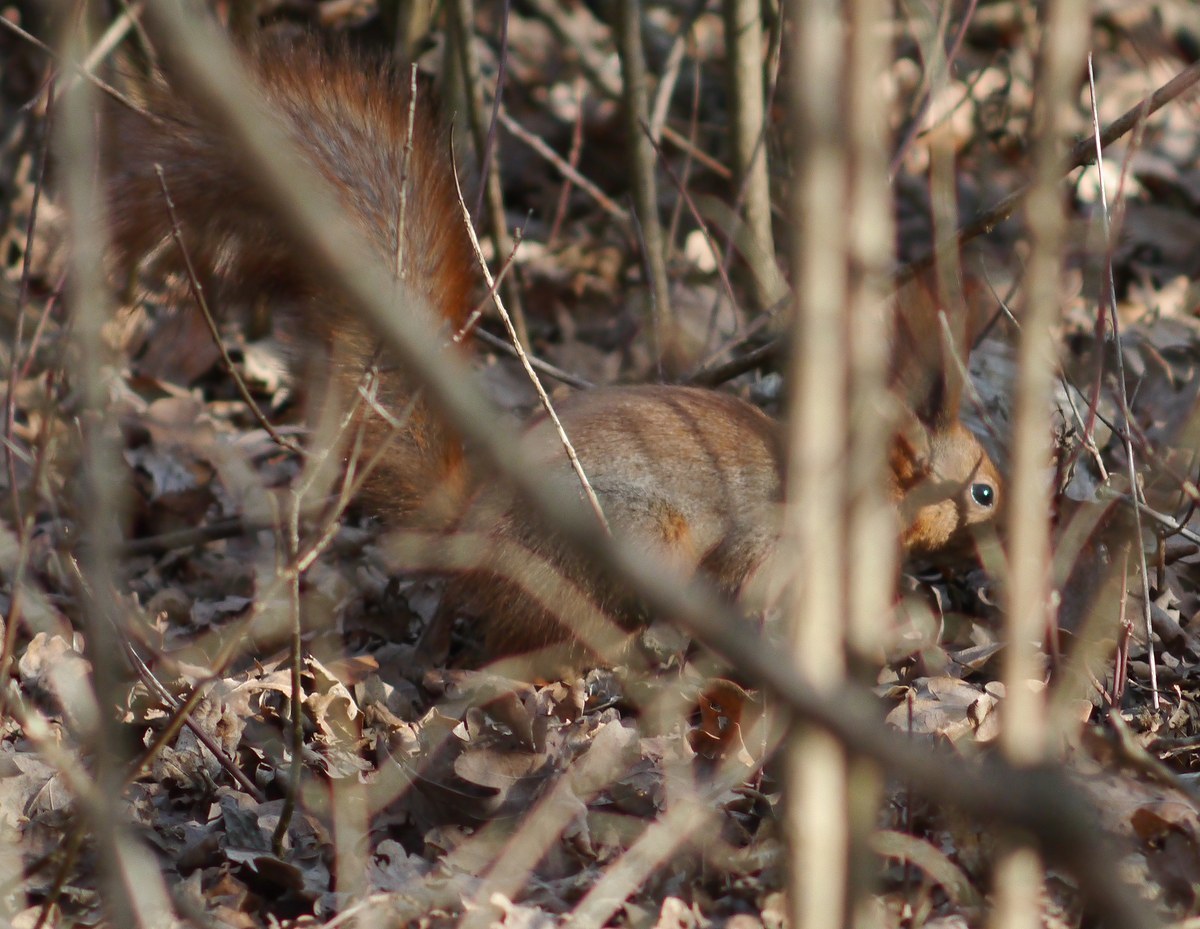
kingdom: Animalia
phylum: Chordata
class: Mammalia
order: Rodentia
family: Sciuridae
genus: Sciurus
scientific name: Sciurus vulgaris
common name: Eurasian red squirrel
